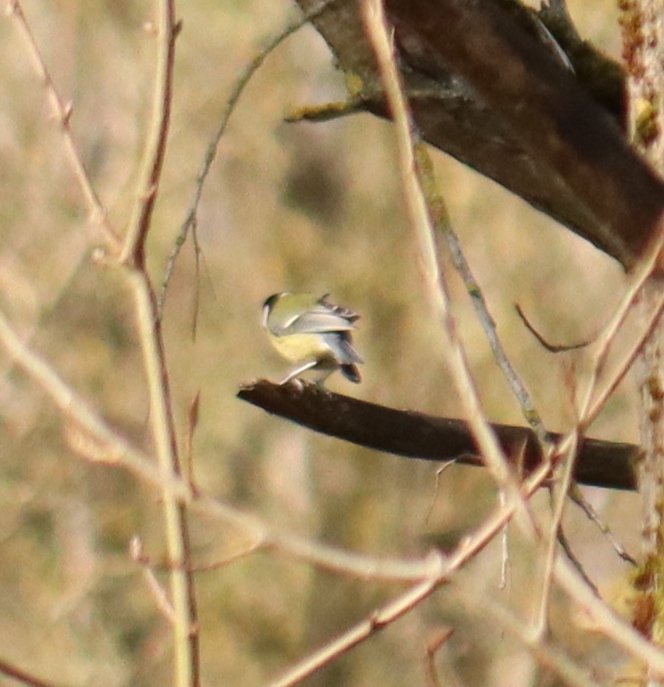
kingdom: Animalia
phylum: Chordata
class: Aves
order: Passeriformes
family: Paridae
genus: Parus
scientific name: Parus major
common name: Great tit
